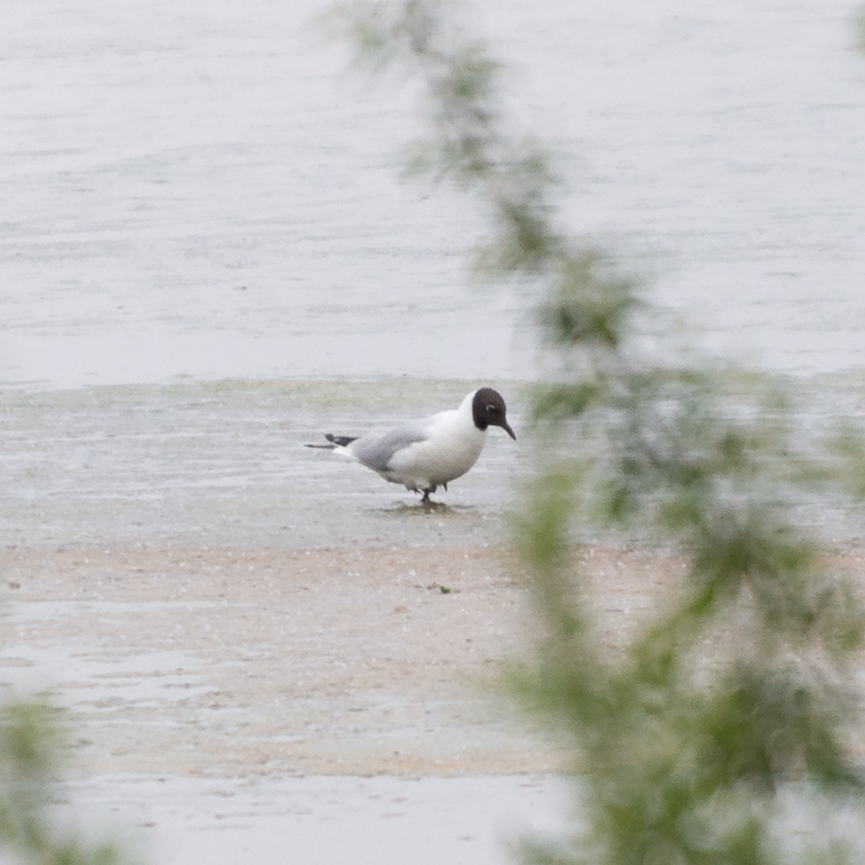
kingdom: Animalia
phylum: Chordata
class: Aves
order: Charadriiformes
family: Laridae
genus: Chroicocephalus
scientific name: Chroicocephalus ridibundus
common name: Black-headed gull
